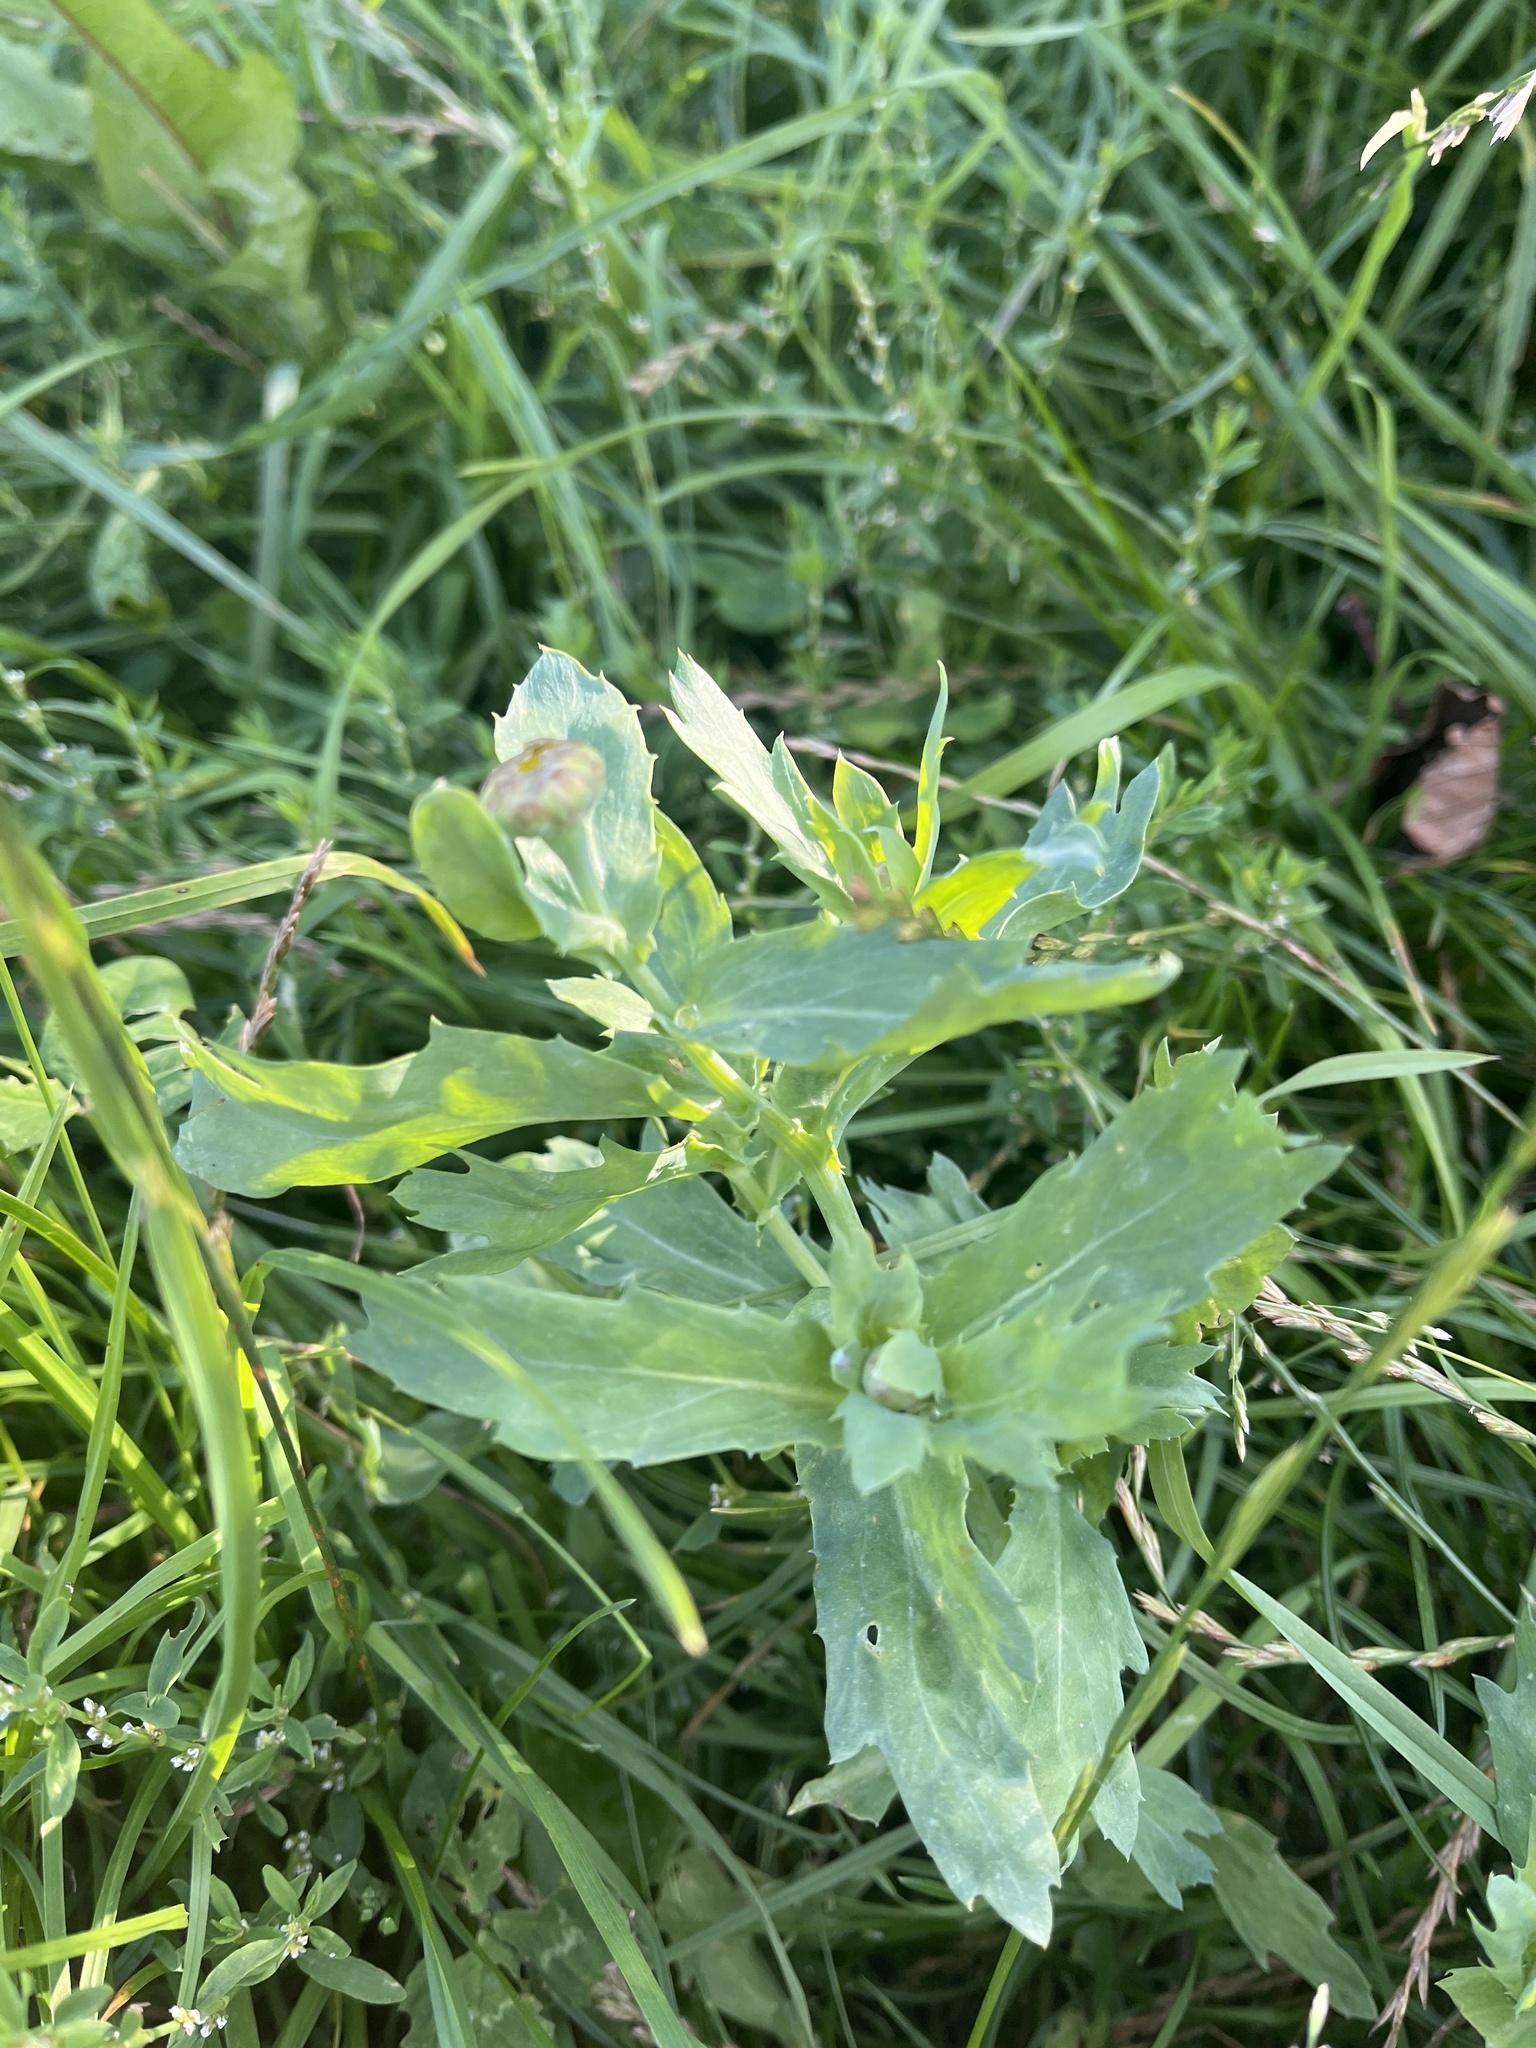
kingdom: Plantae
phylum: Tracheophyta
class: Magnoliopsida
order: Asterales
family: Asteraceae
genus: Glebionis
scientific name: Glebionis segetum
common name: Corndaisy
